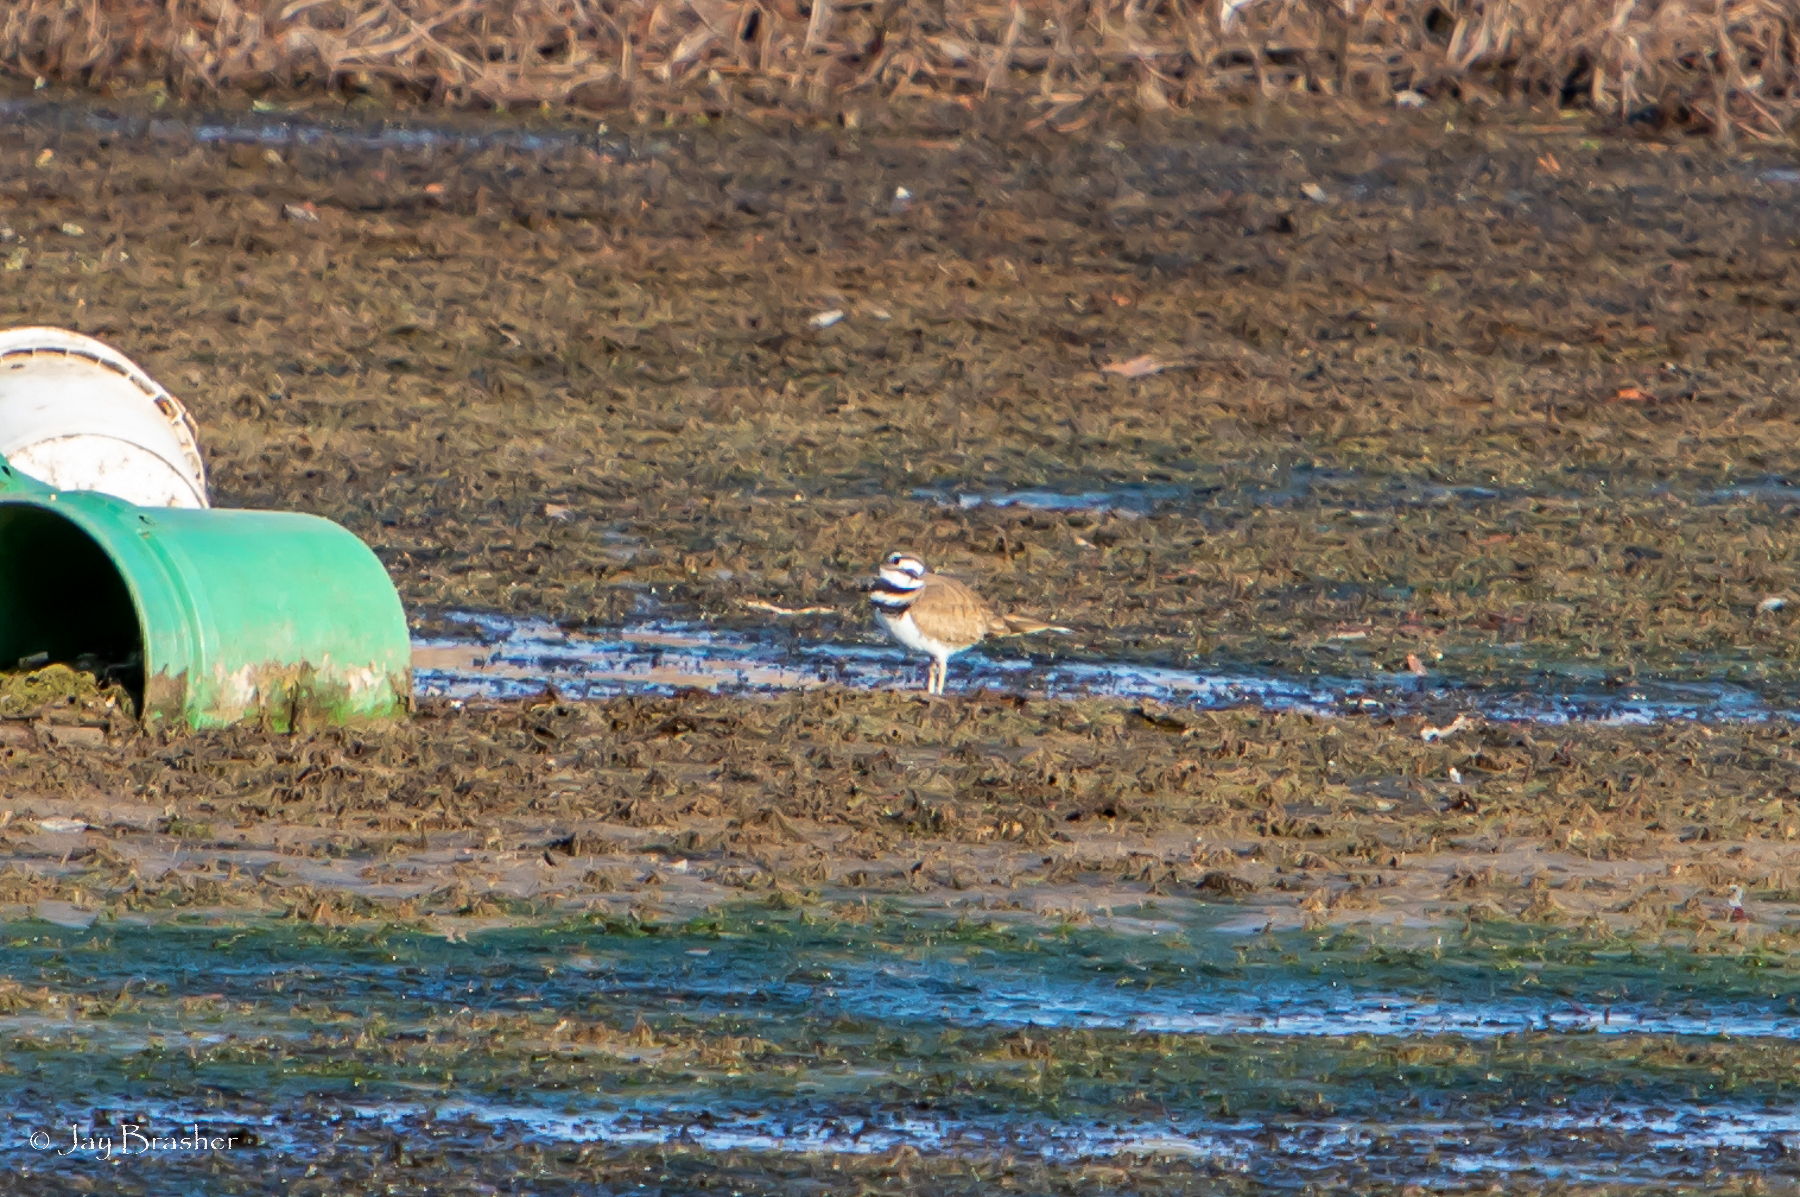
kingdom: Animalia
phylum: Chordata
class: Aves
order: Charadriiformes
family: Charadriidae
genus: Charadrius
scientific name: Charadrius vociferus
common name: Killdeer
